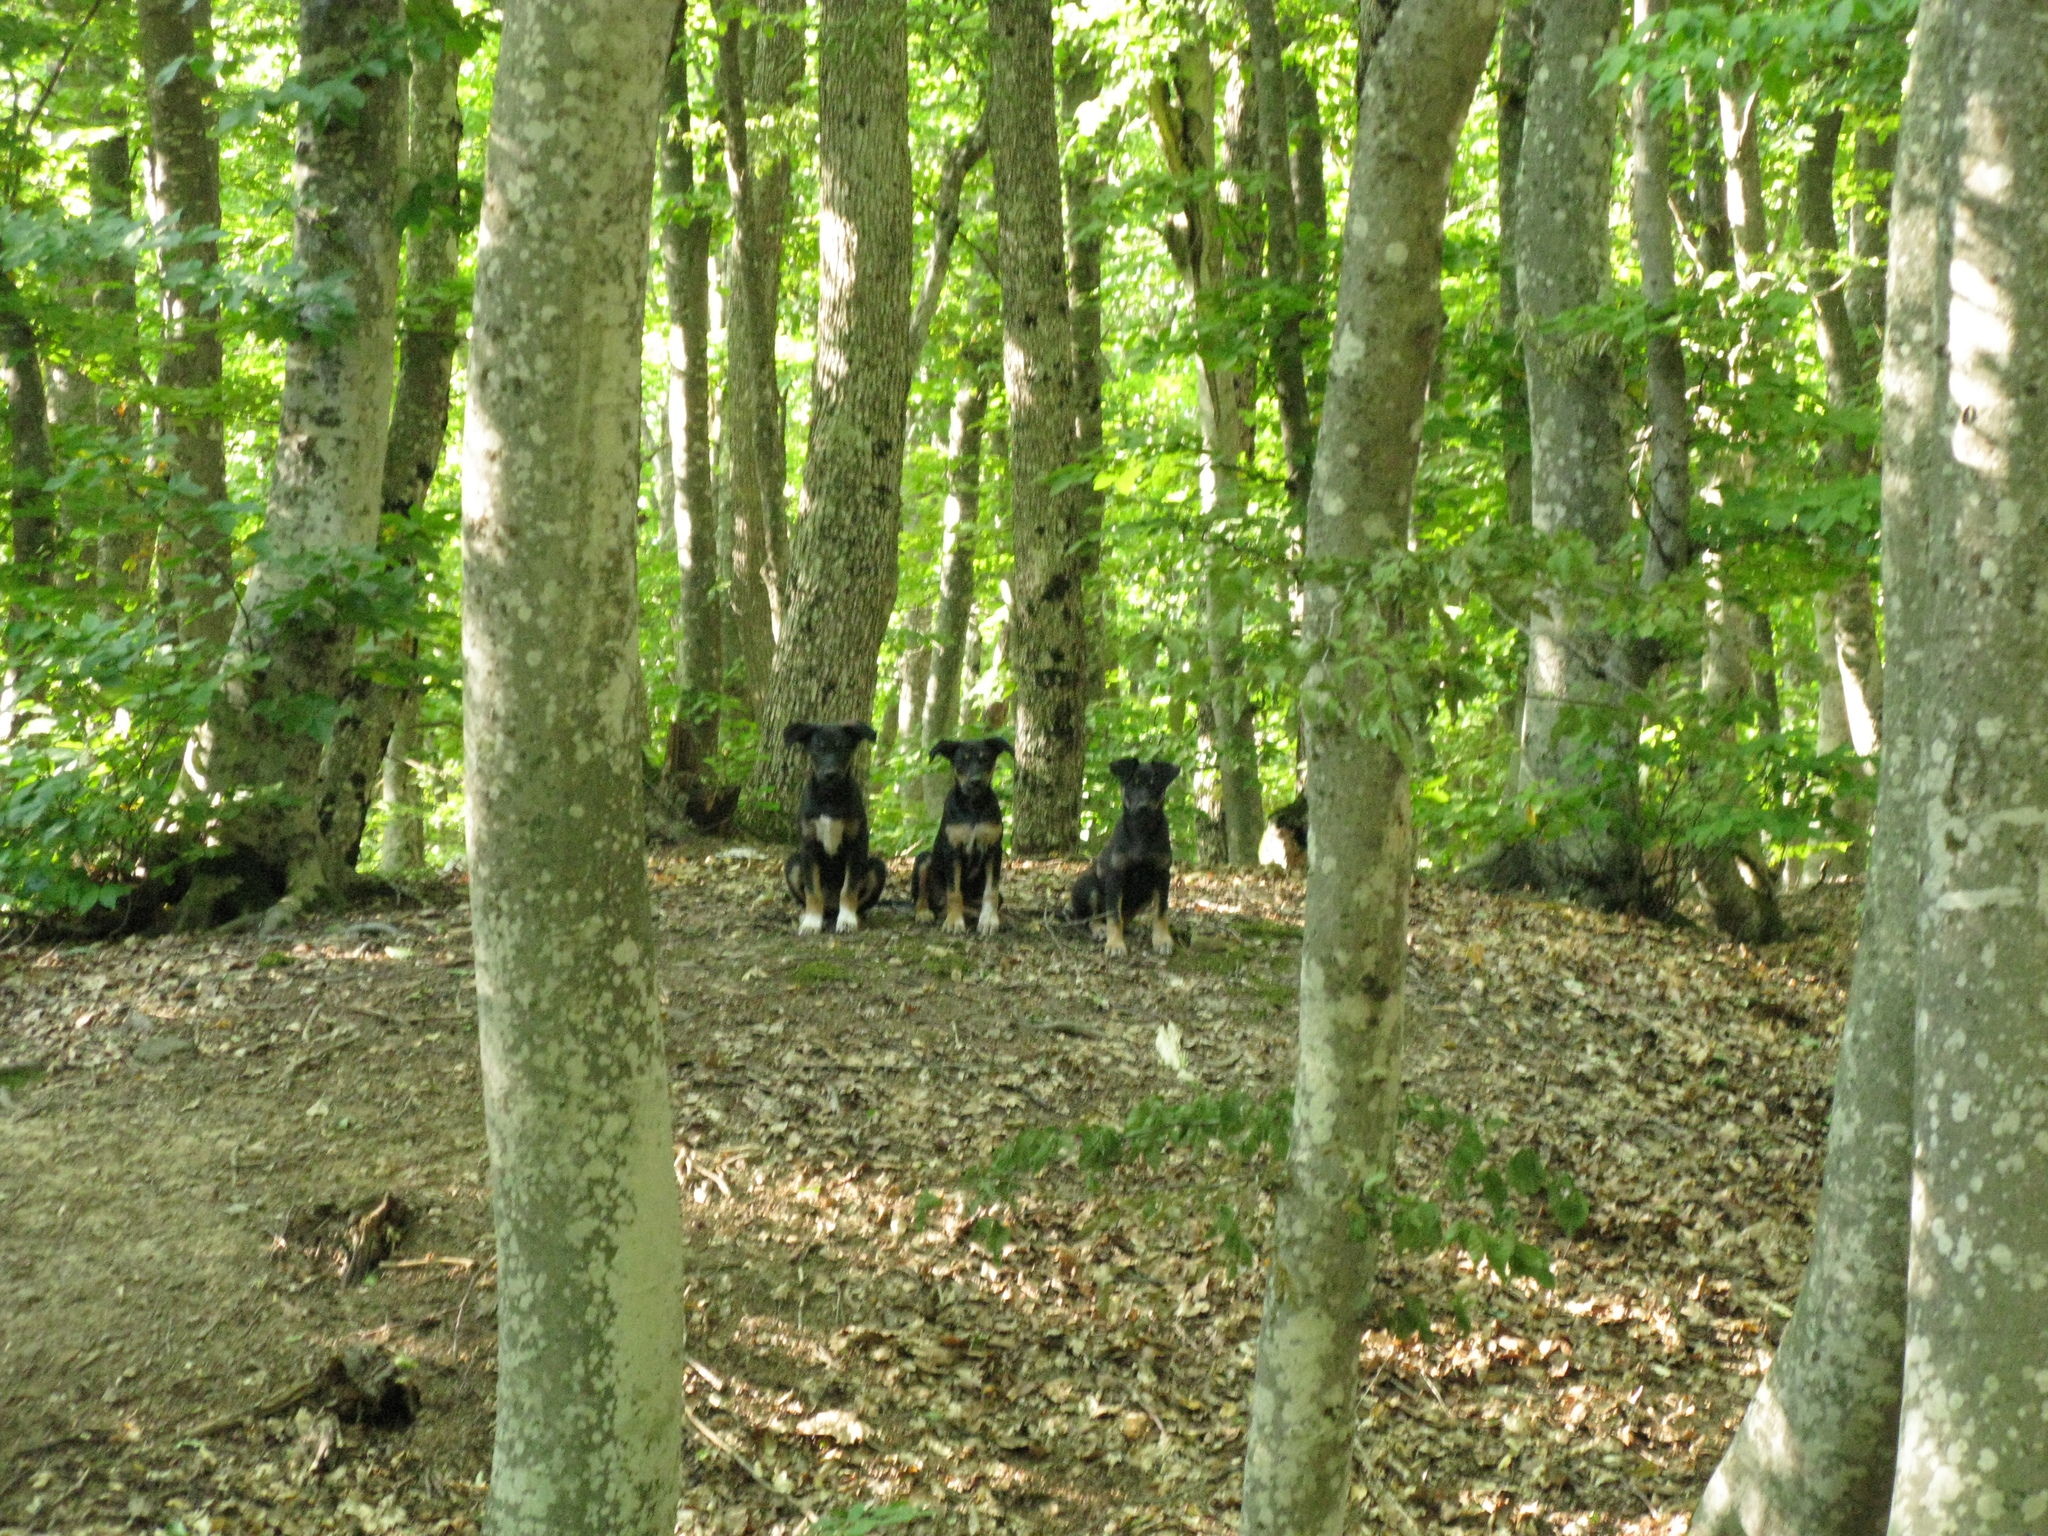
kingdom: Animalia
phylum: Chordata
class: Mammalia
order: Carnivora
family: Canidae
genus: Canis
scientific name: Canis lupus
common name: Gray wolf
